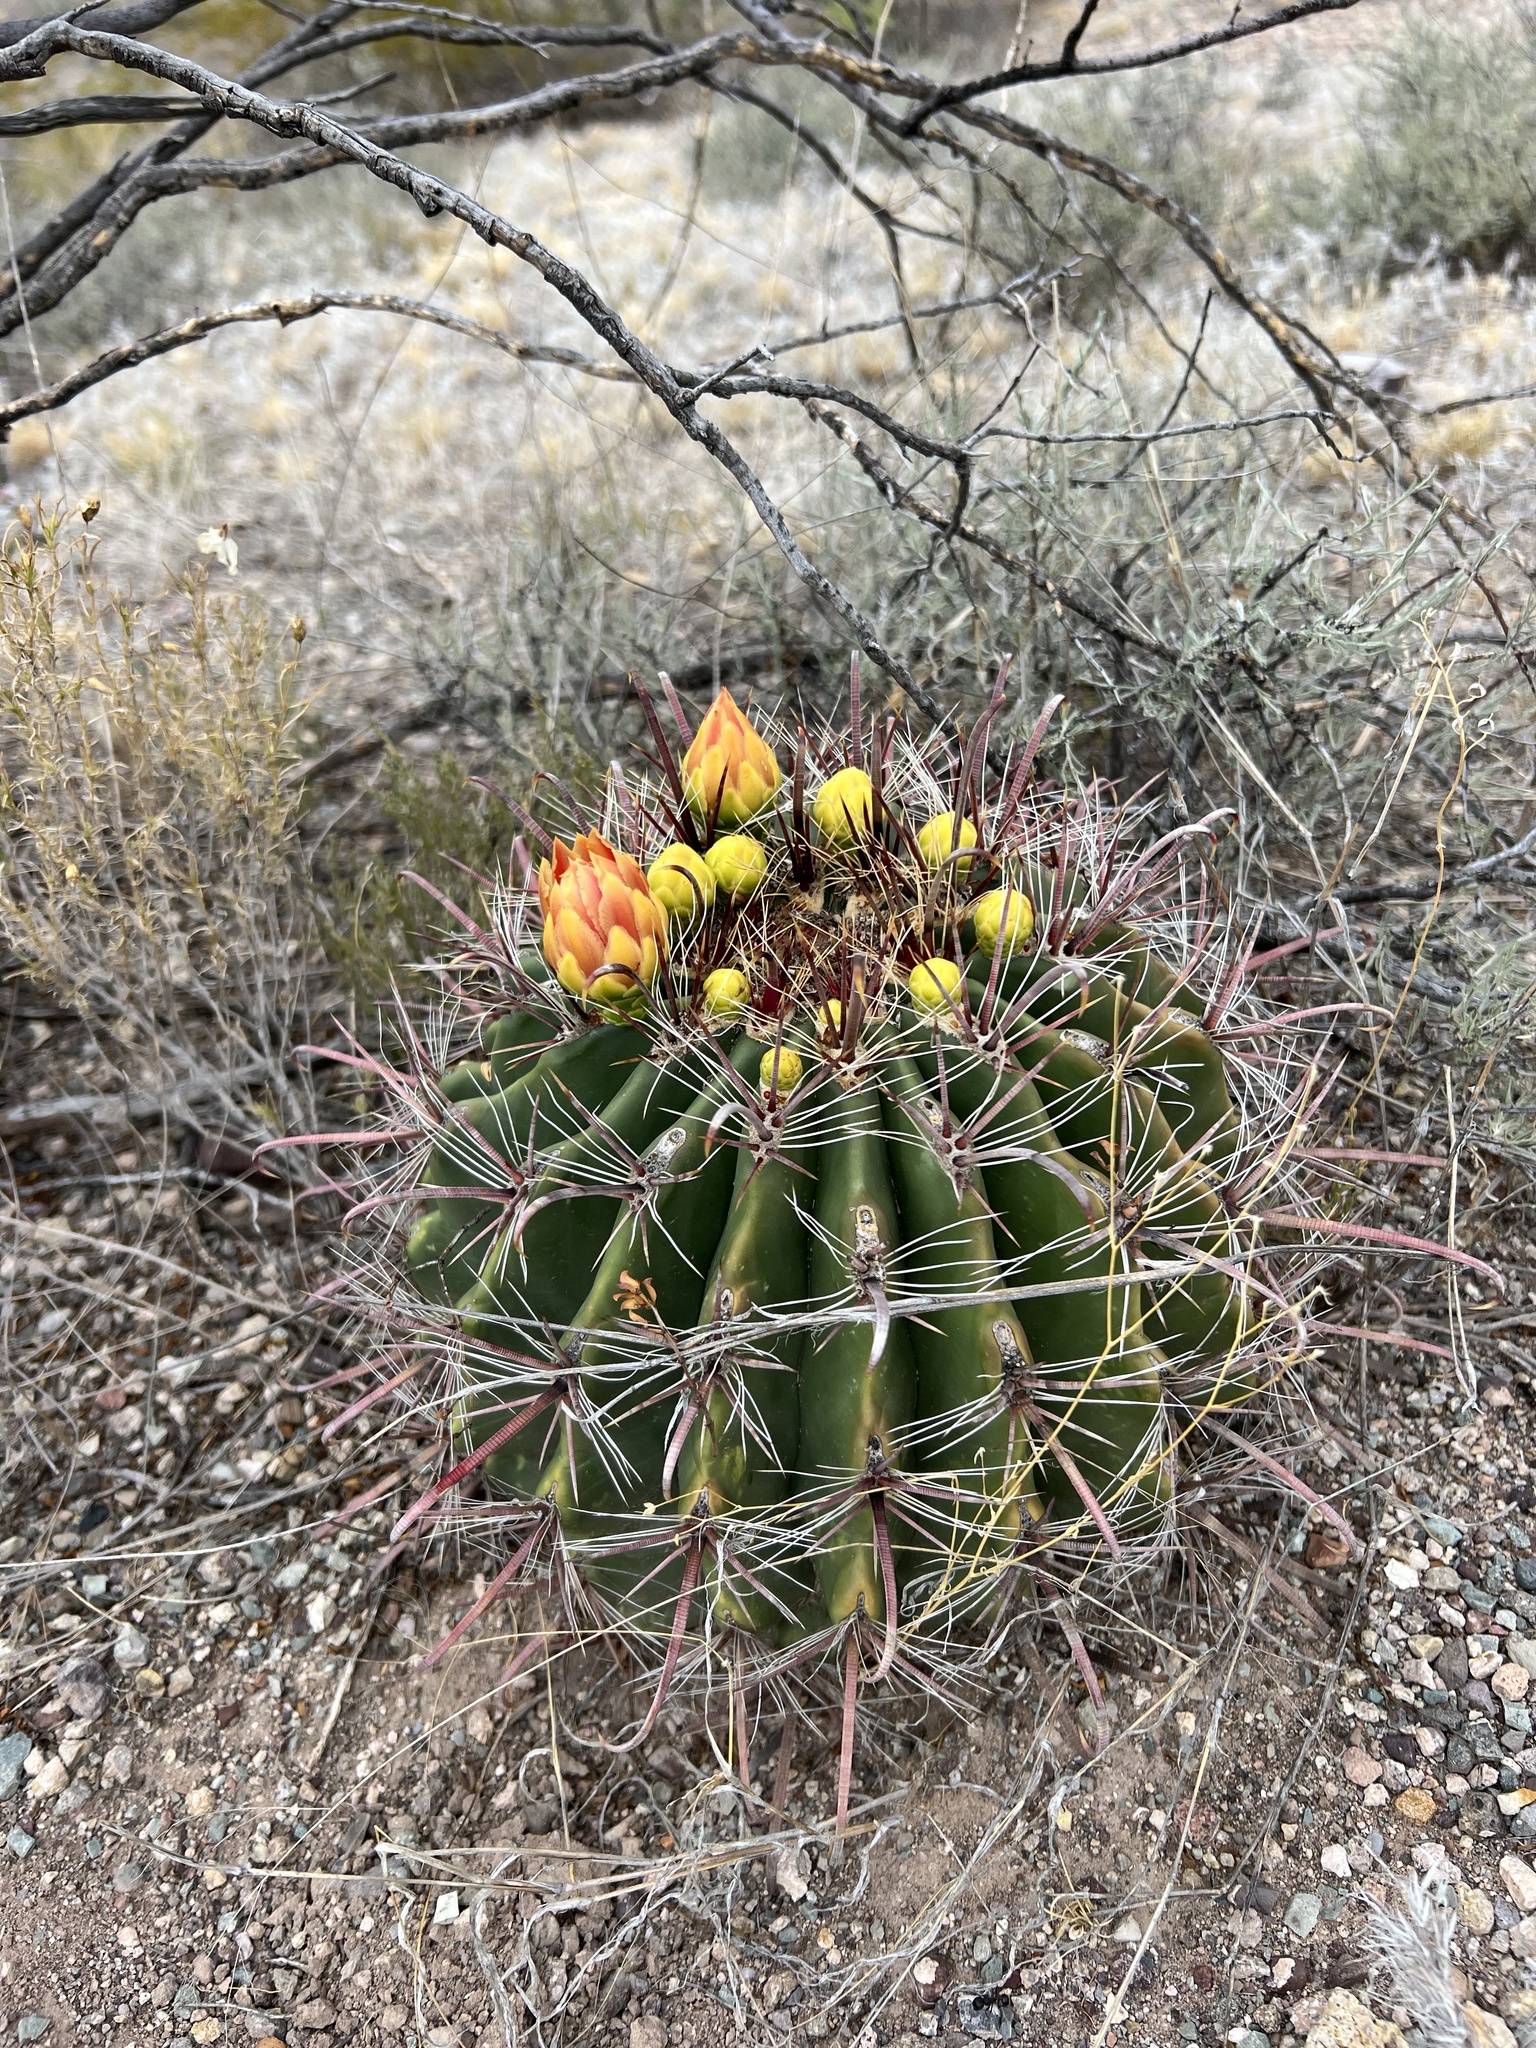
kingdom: Plantae
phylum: Tracheophyta
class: Magnoliopsida
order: Caryophyllales
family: Cactaceae
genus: Ferocactus
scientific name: Ferocactus wislizeni
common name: Candy barrel cactus
